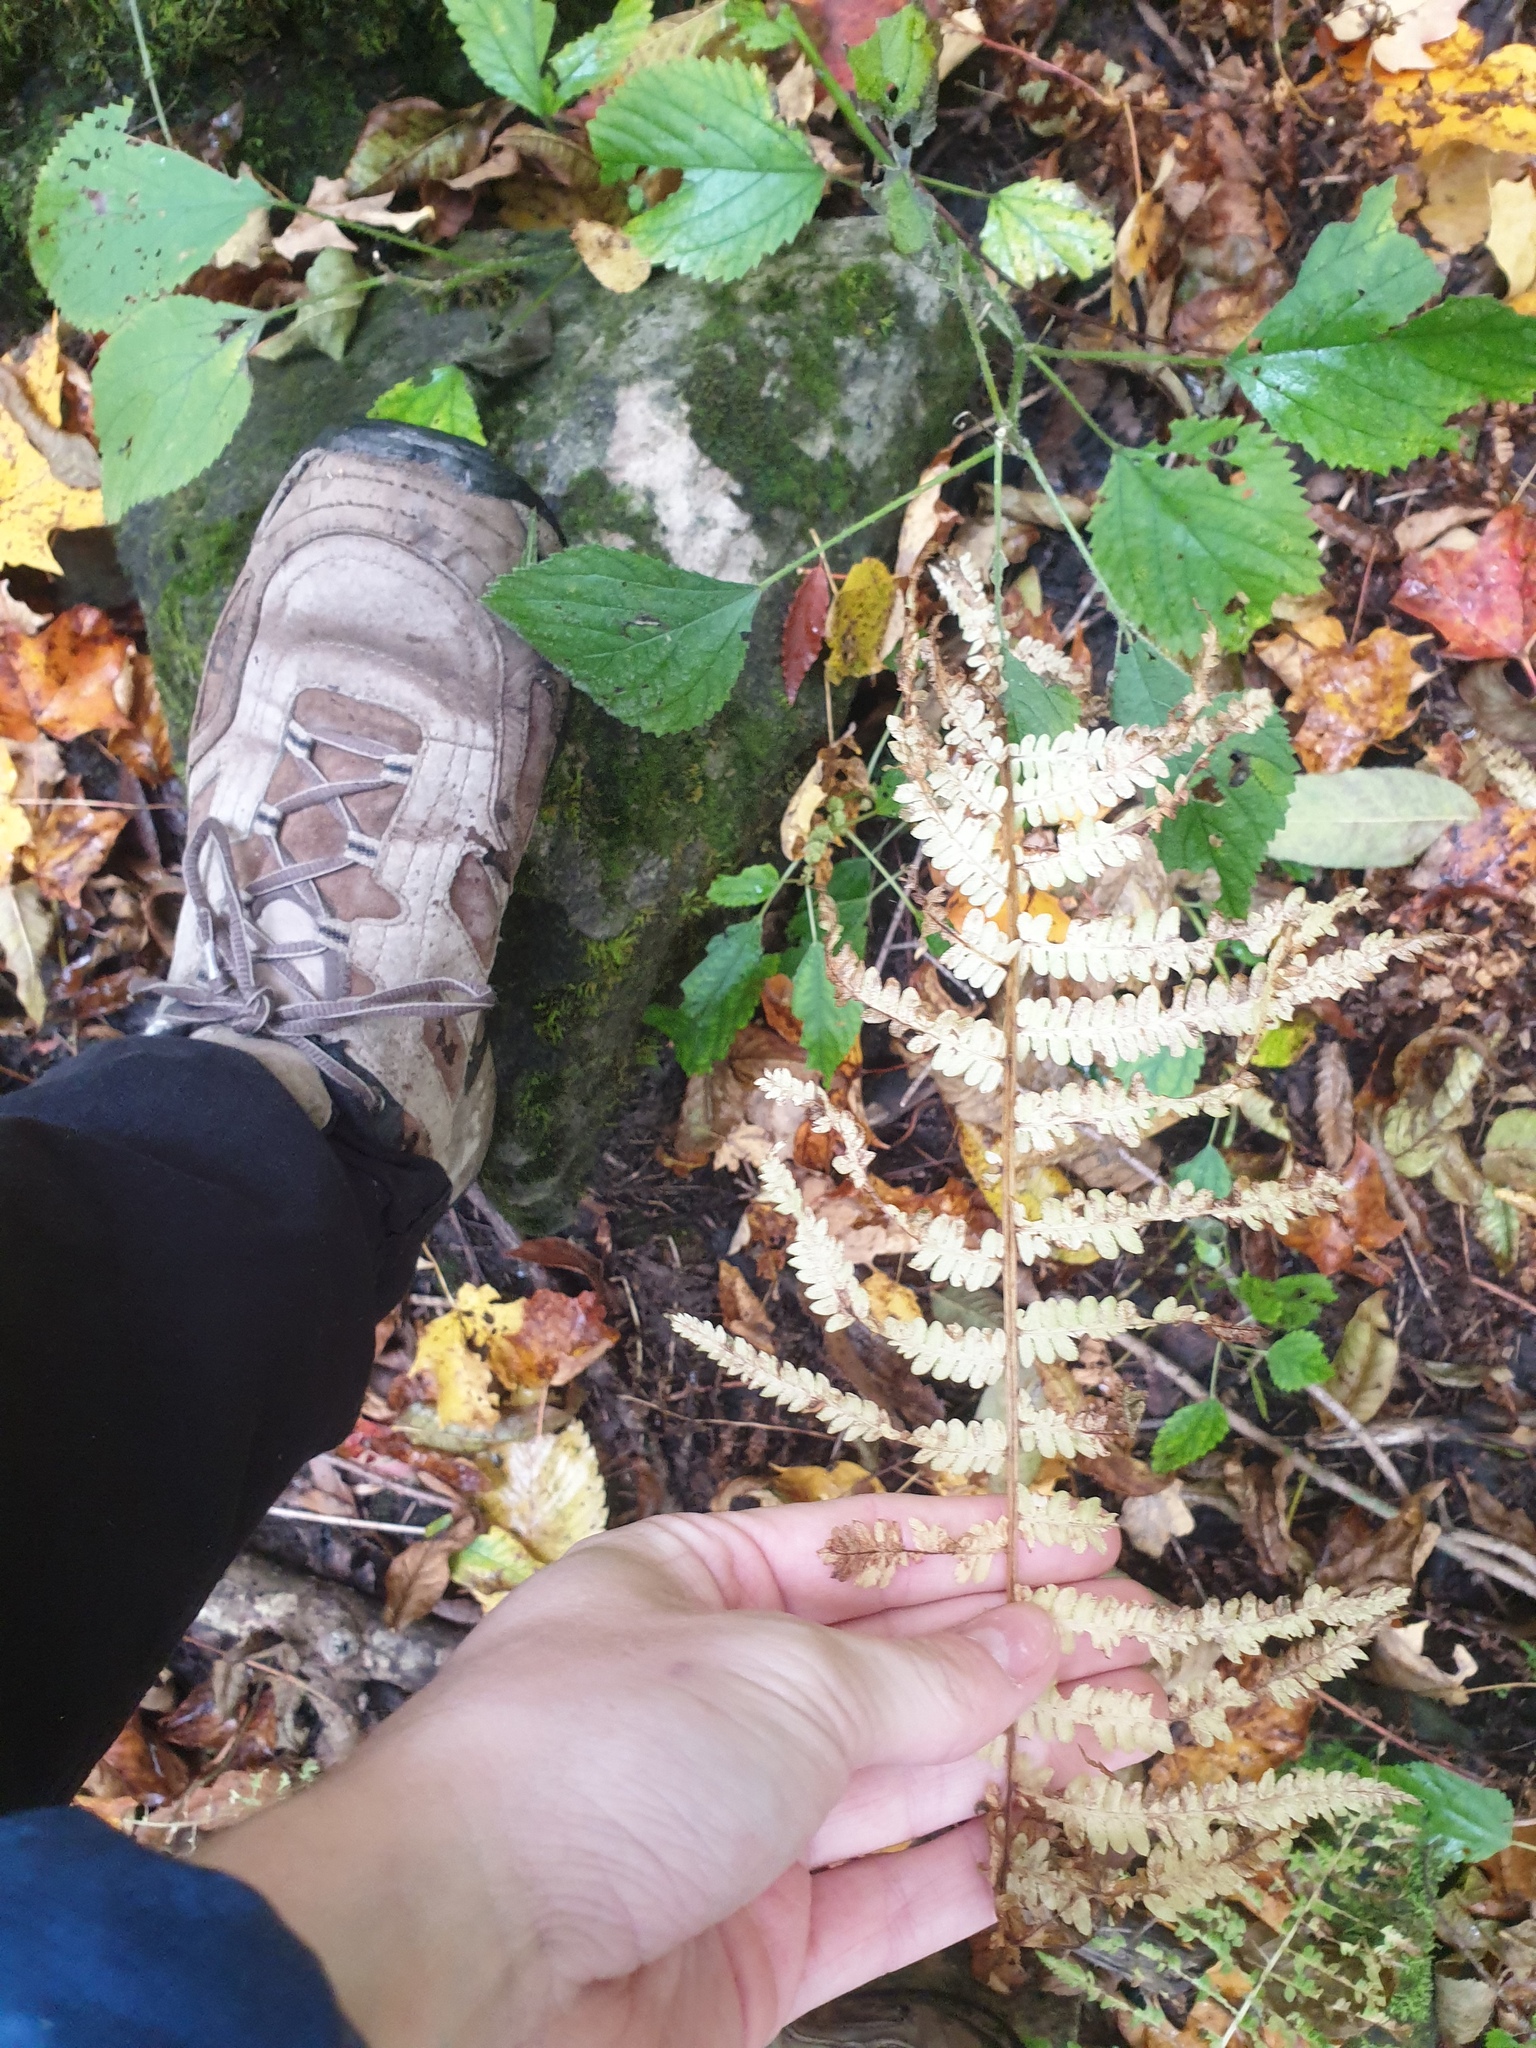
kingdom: Plantae
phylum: Tracheophyta
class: Polypodiopsida
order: Polypodiales
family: Onocleaceae
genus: Matteuccia
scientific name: Matteuccia struthiopteris
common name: Ostrich fern
